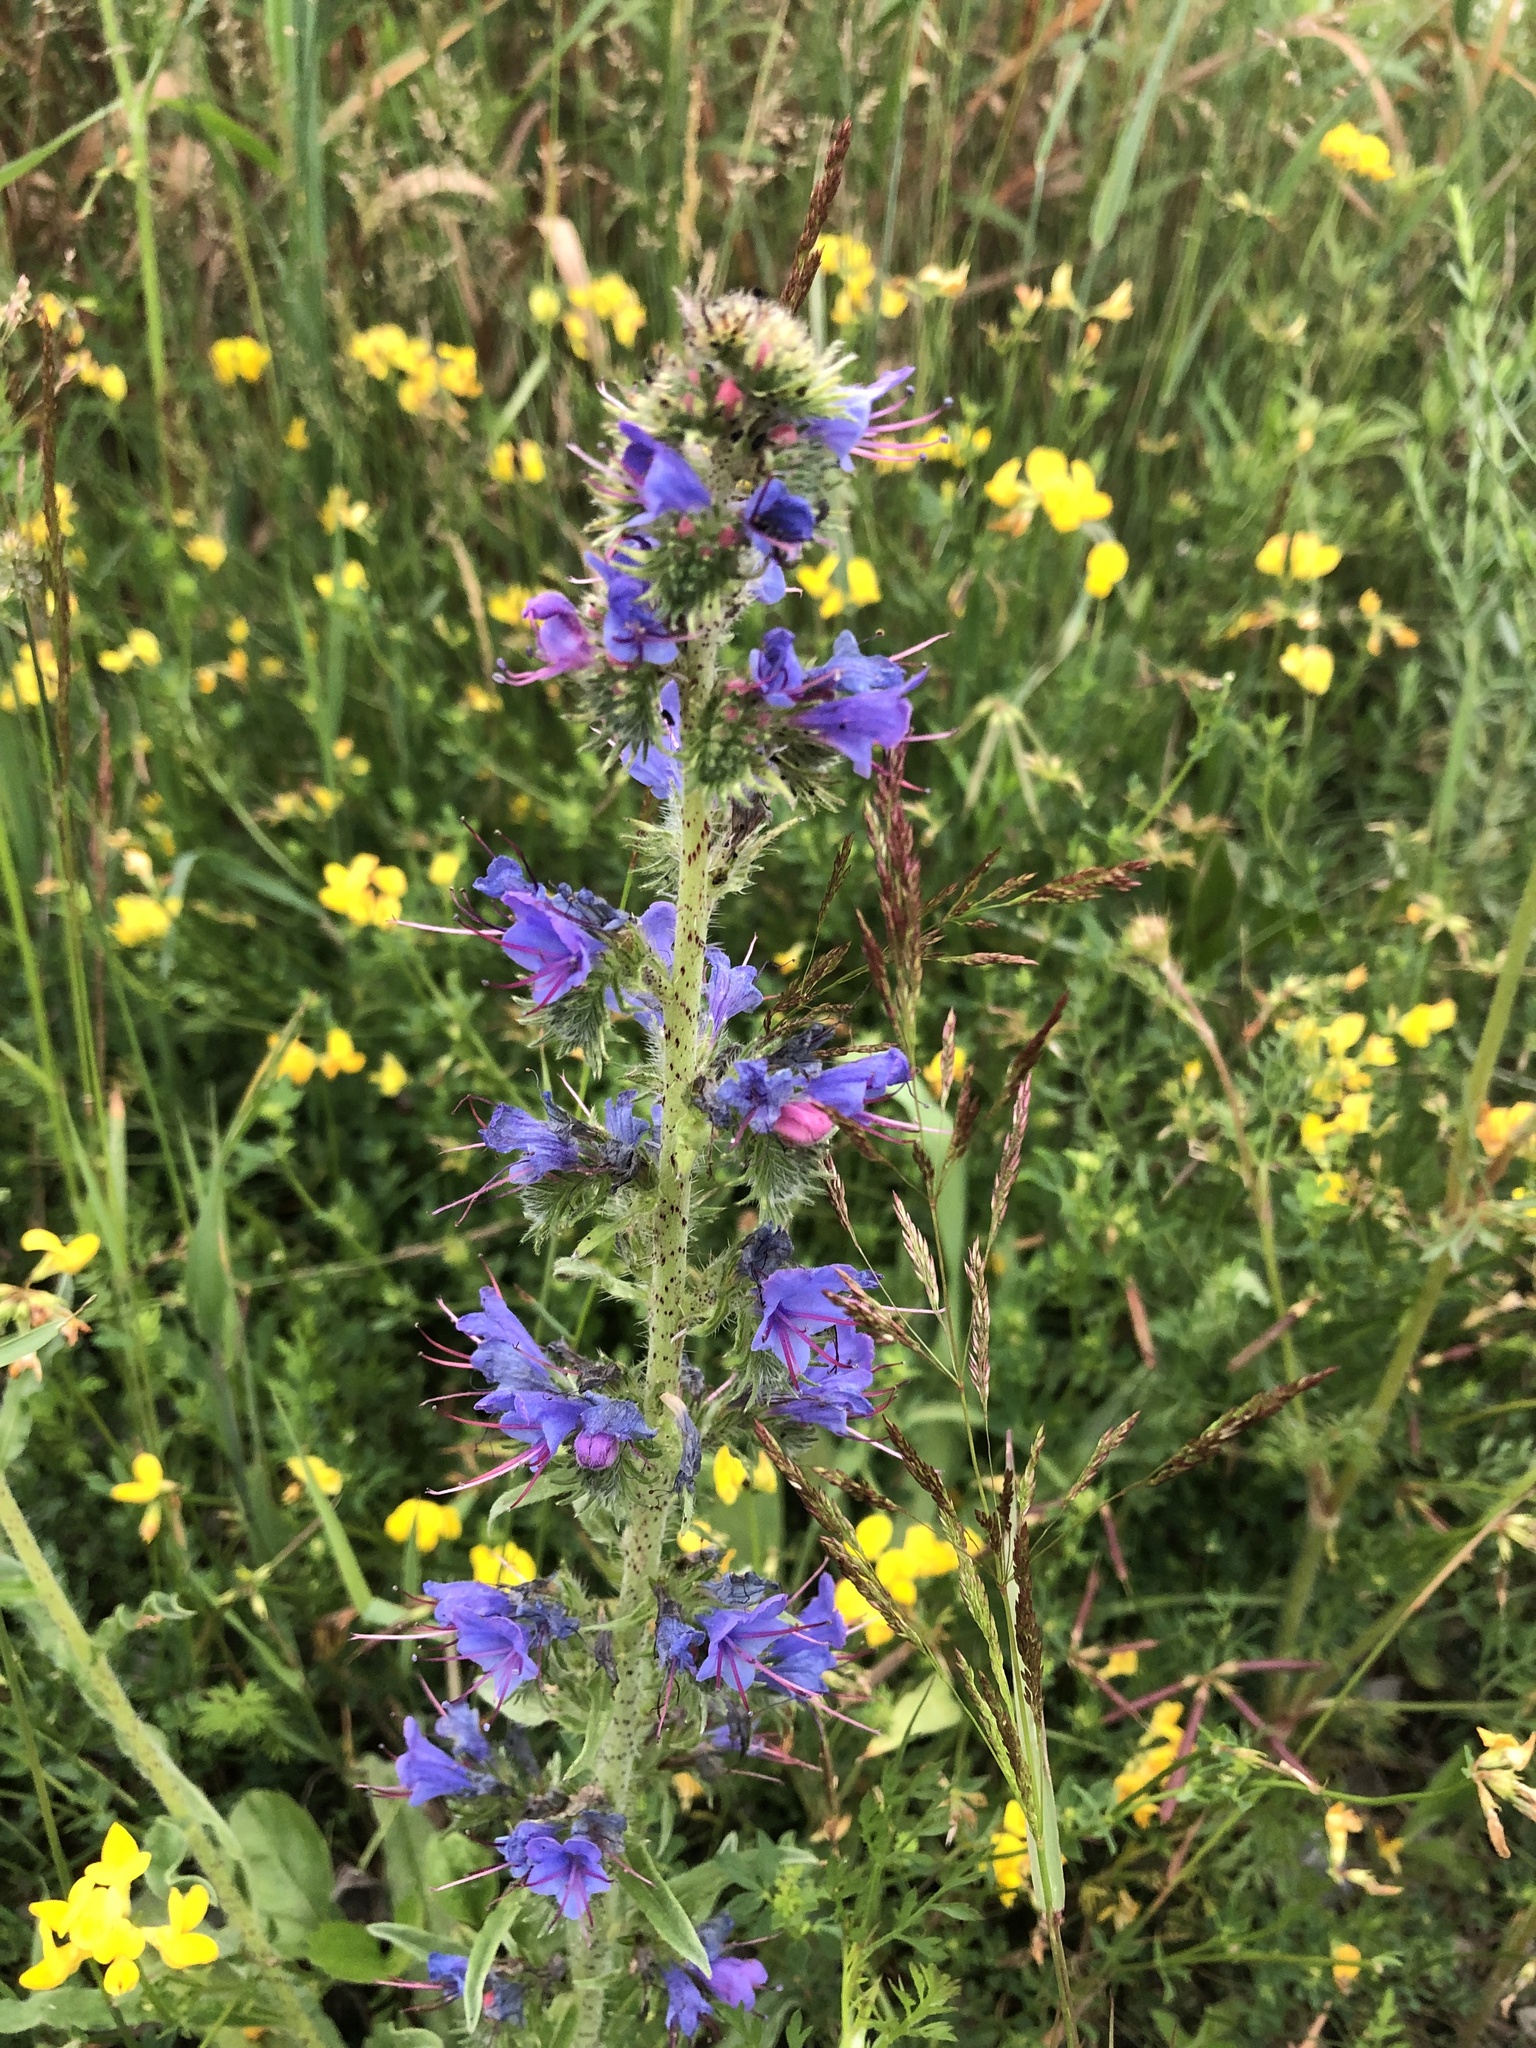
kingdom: Plantae
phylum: Tracheophyta
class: Magnoliopsida
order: Boraginales
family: Boraginaceae
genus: Echium
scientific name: Echium vulgare
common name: Common viper's bugloss
